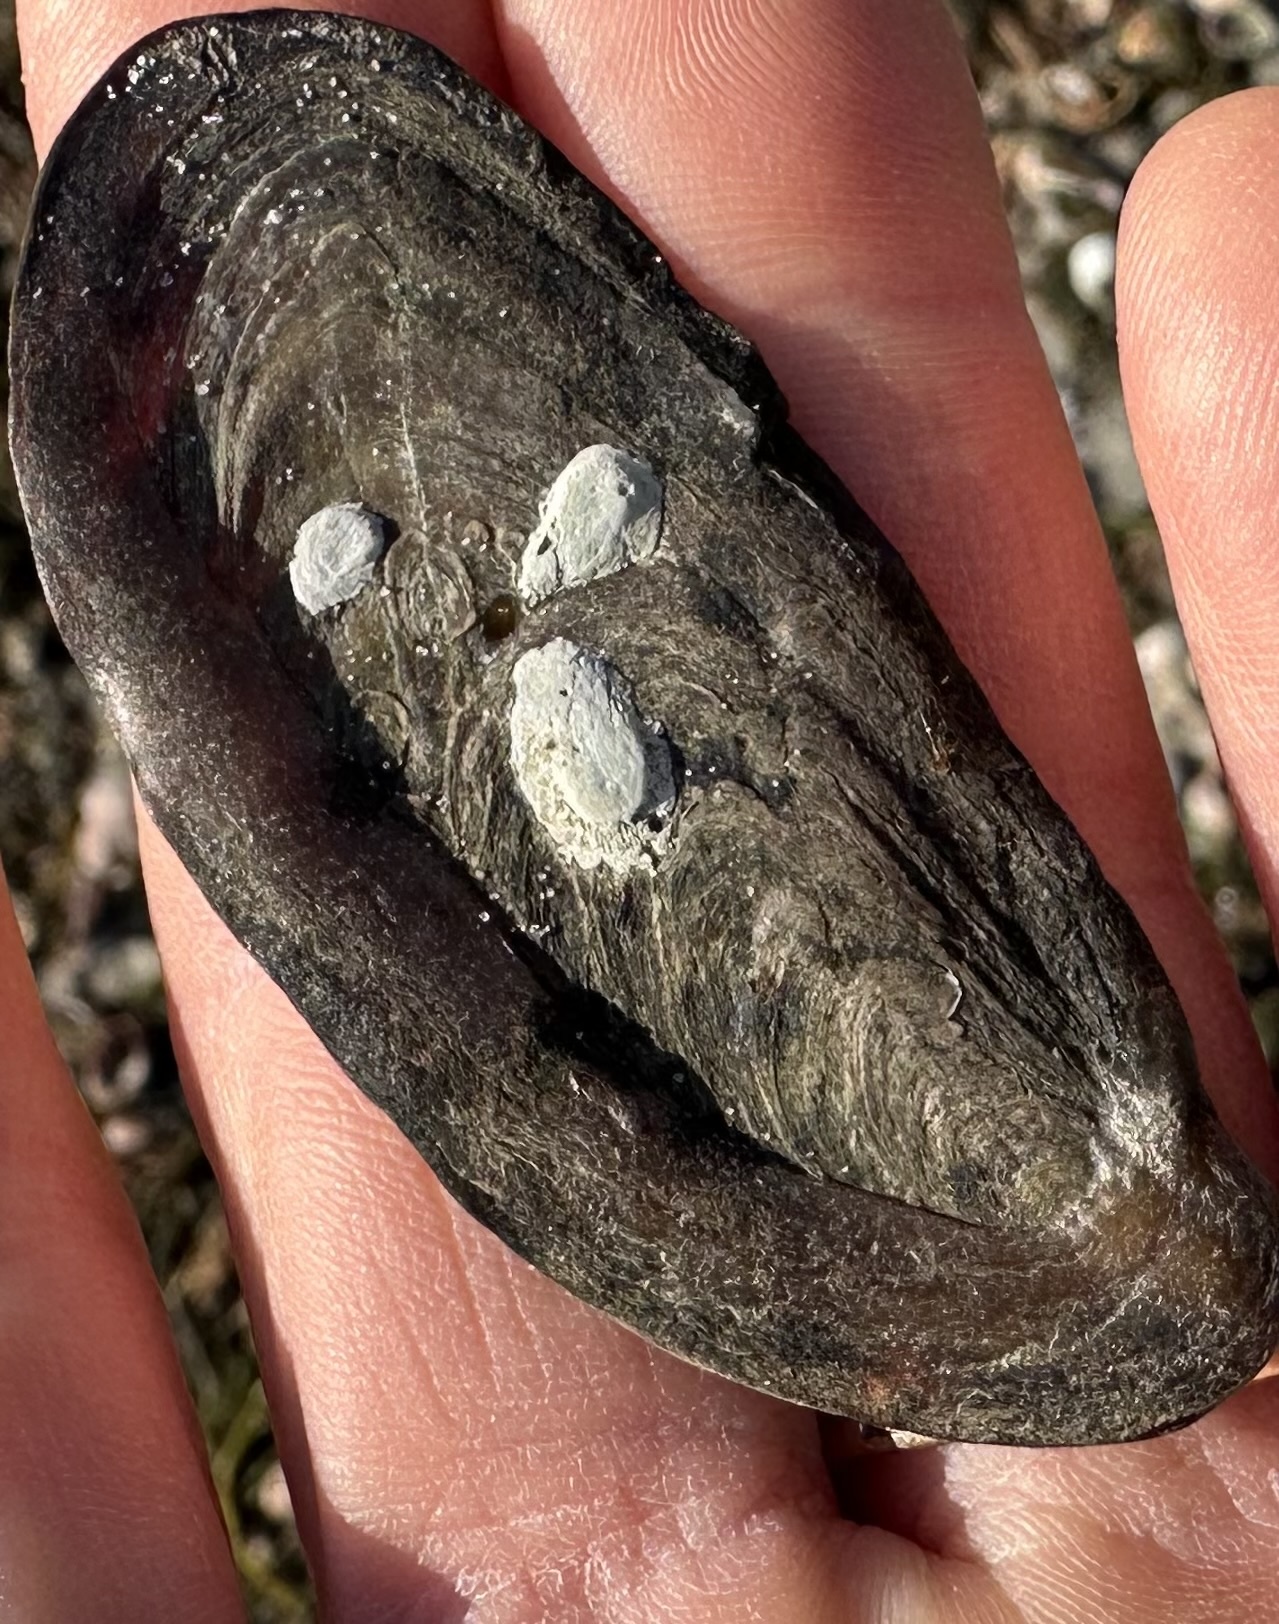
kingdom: Animalia
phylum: Mollusca
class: Gastropoda
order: Neogastropoda
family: Busyconidae
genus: Busycon
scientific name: Busycon carica
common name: Knobbed whelk
